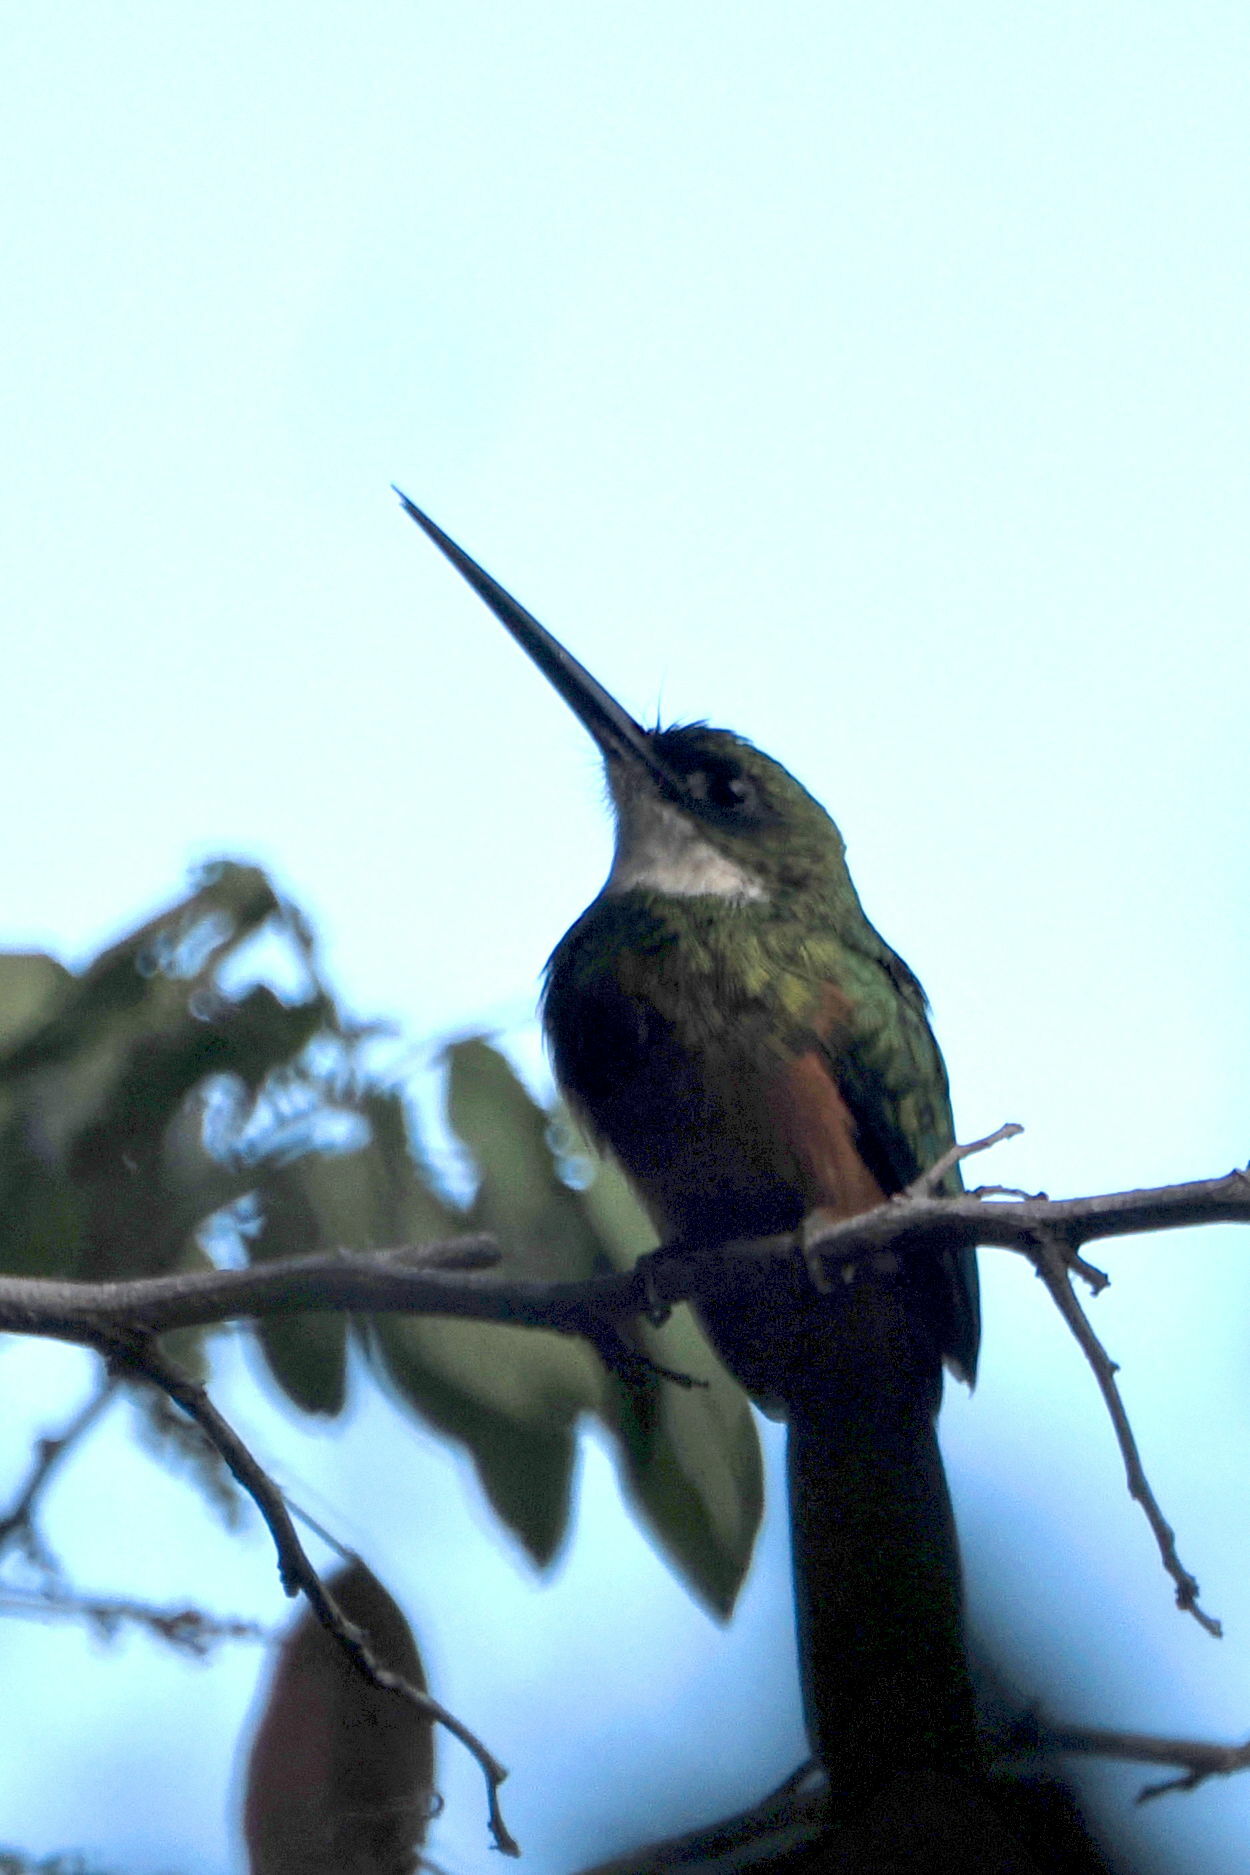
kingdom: Animalia
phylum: Chordata
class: Aves
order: Piciformes
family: Galbulidae
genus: Galbula
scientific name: Galbula ruficauda
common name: Rufous-tailed jacamar
